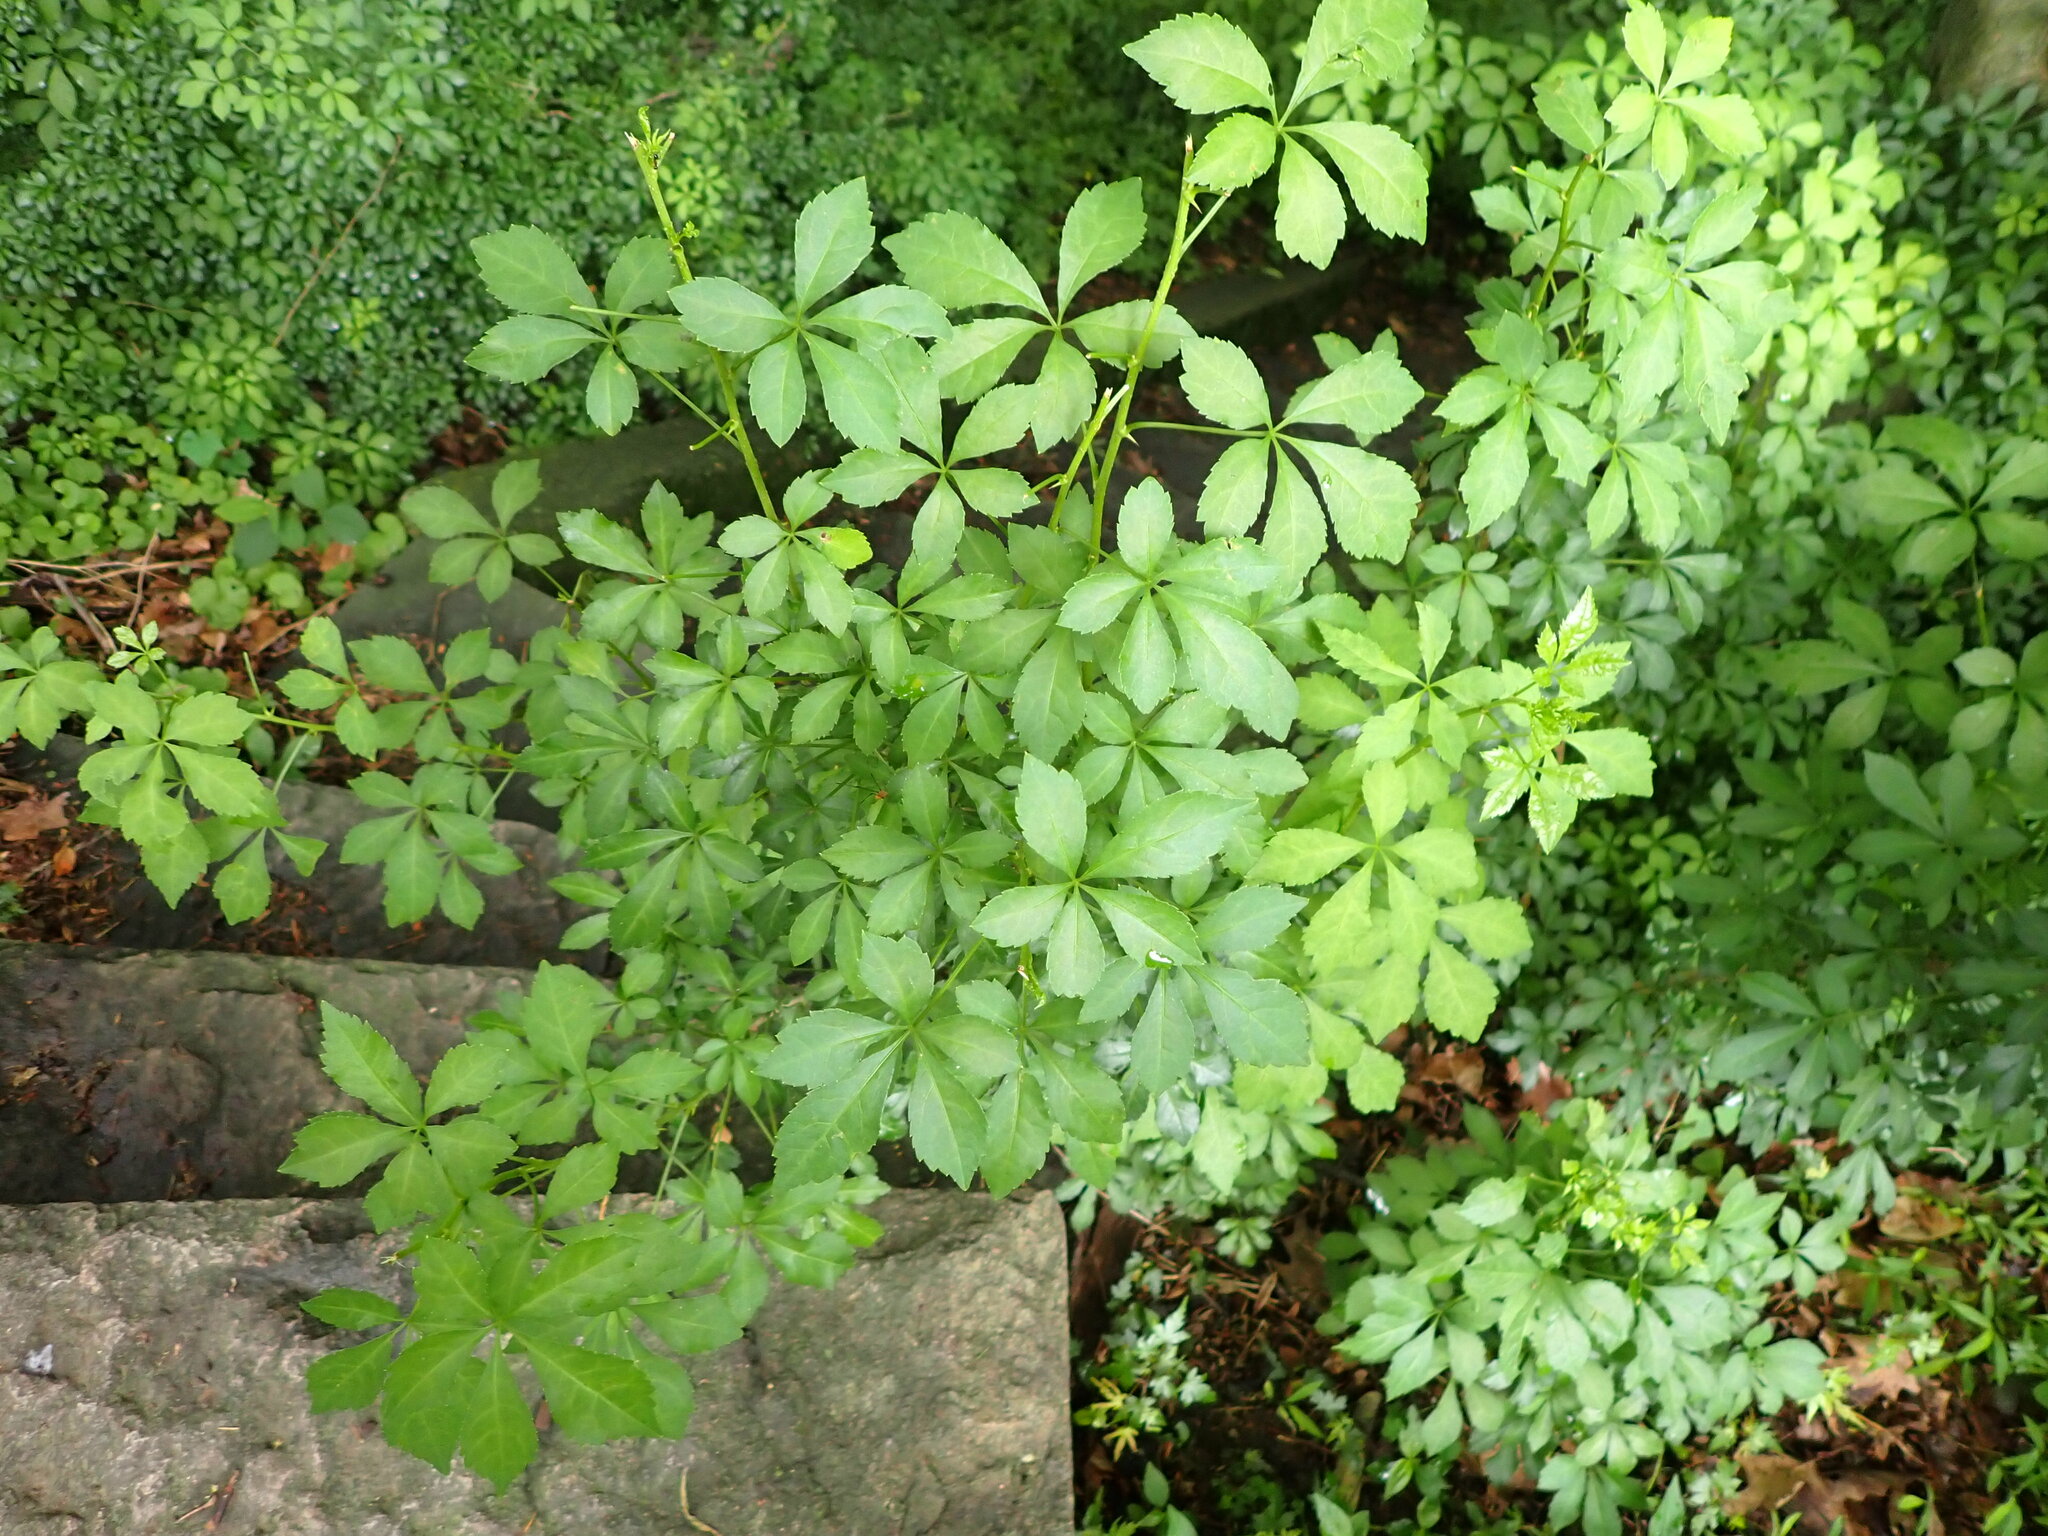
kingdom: Plantae
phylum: Tracheophyta
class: Magnoliopsida
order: Apiales
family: Araliaceae
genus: Eleutherococcus
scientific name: Eleutherococcus sieboldianus
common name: Ginseng
